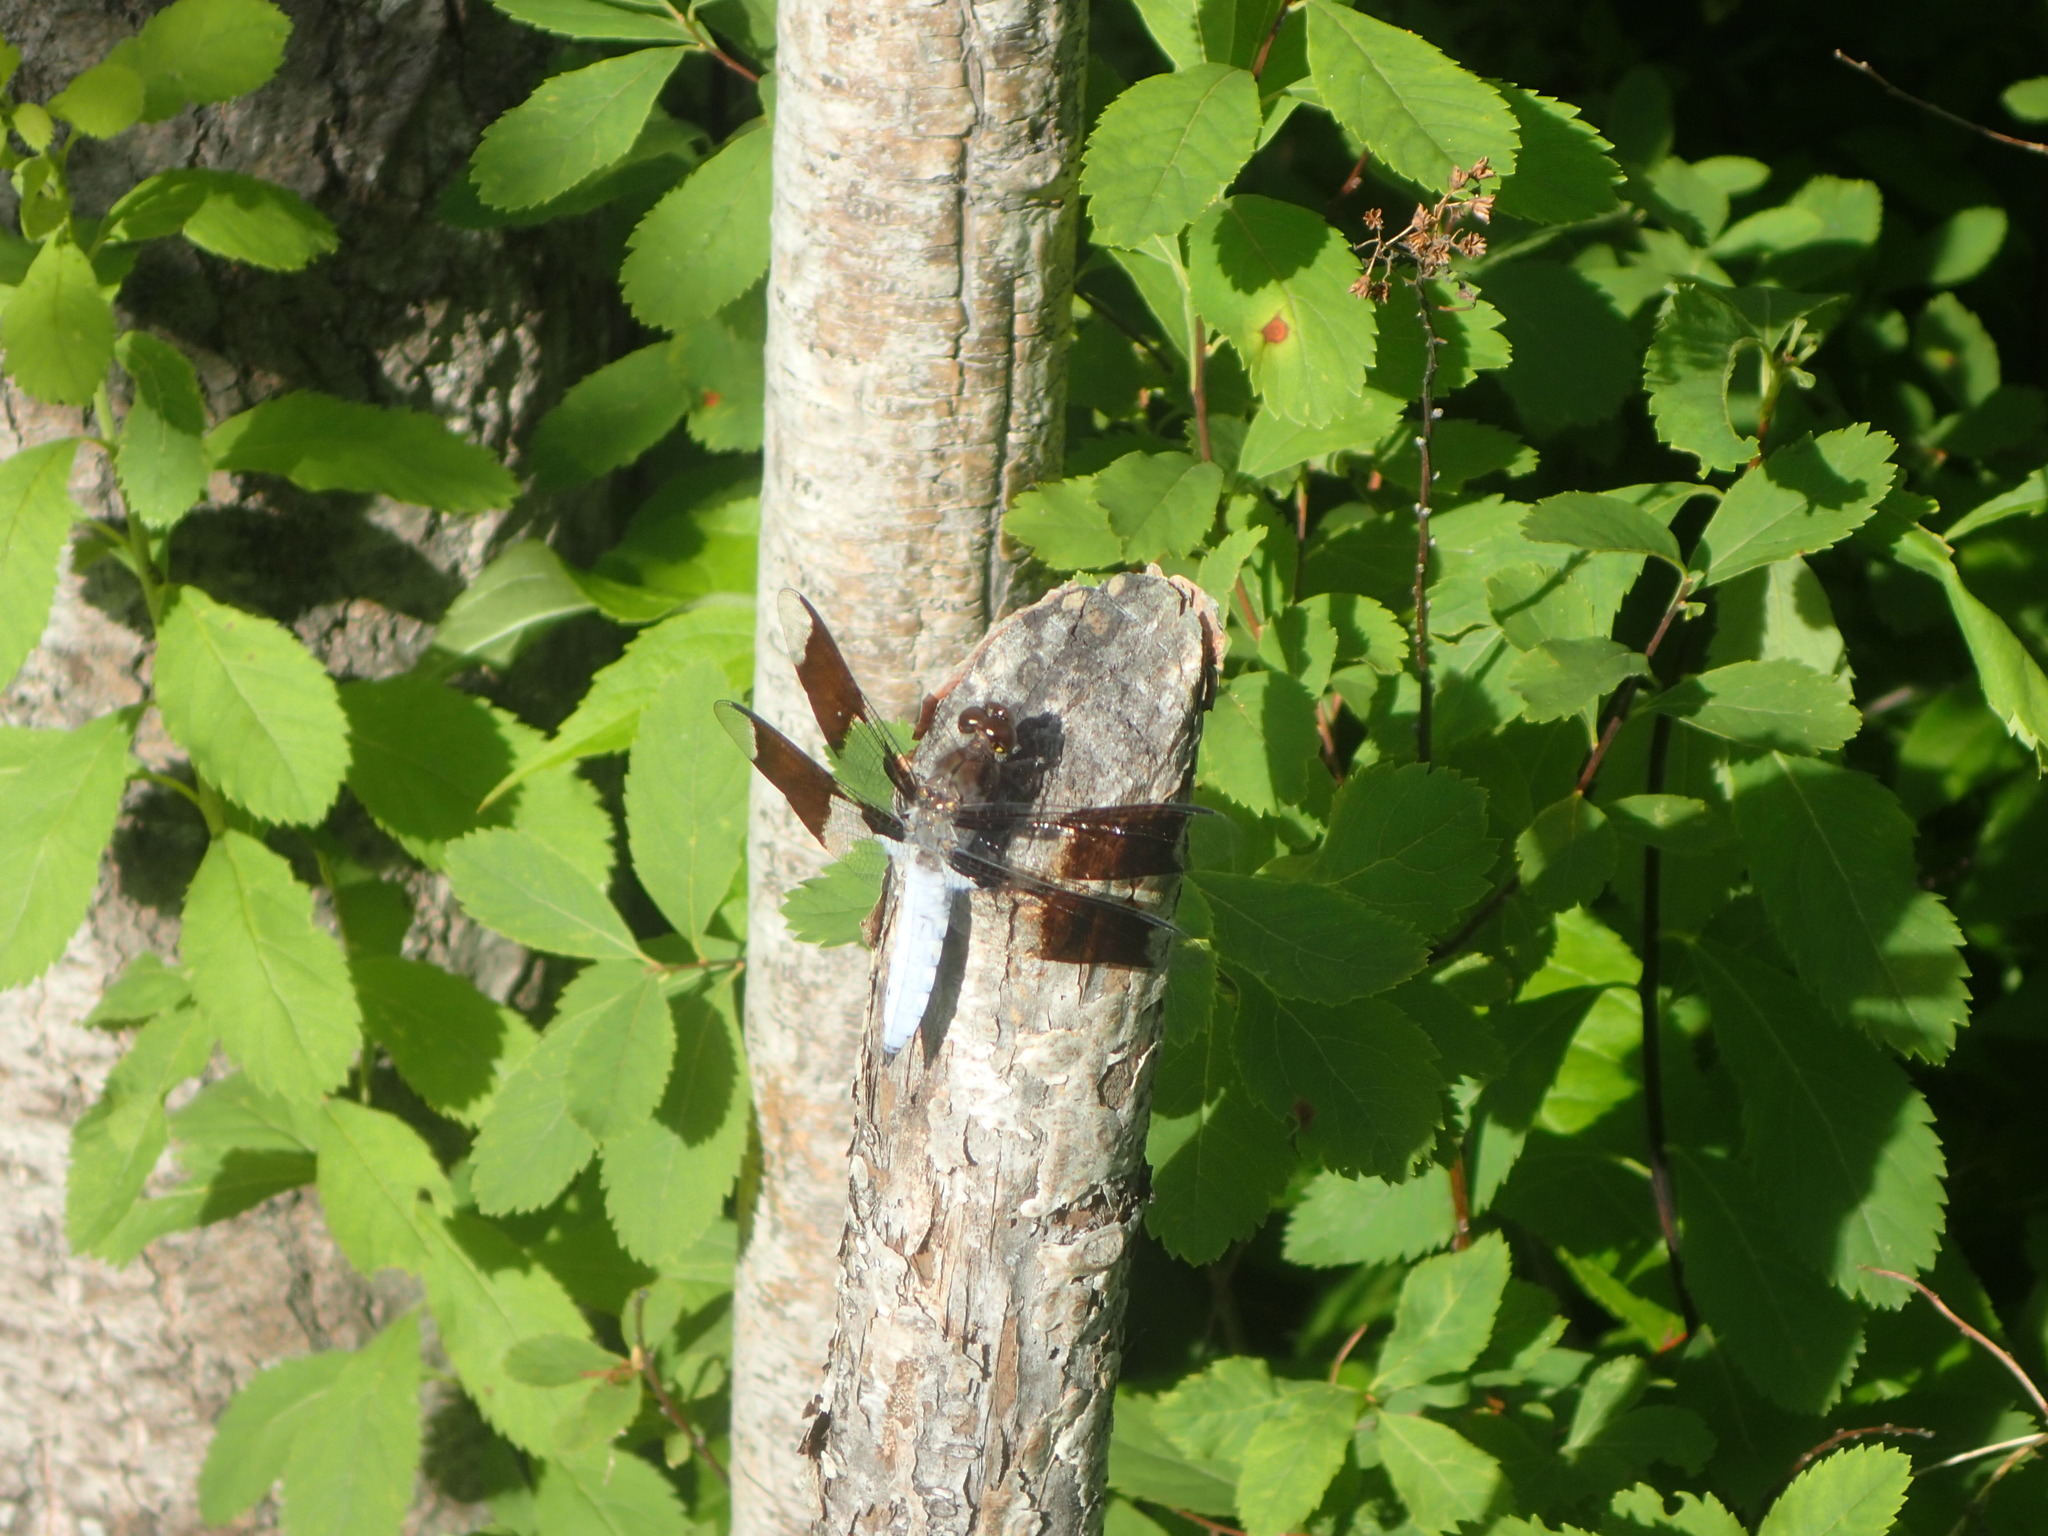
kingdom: Animalia
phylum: Arthropoda
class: Insecta
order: Odonata
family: Libellulidae
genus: Plathemis
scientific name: Plathemis lydia
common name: Common whitetail
